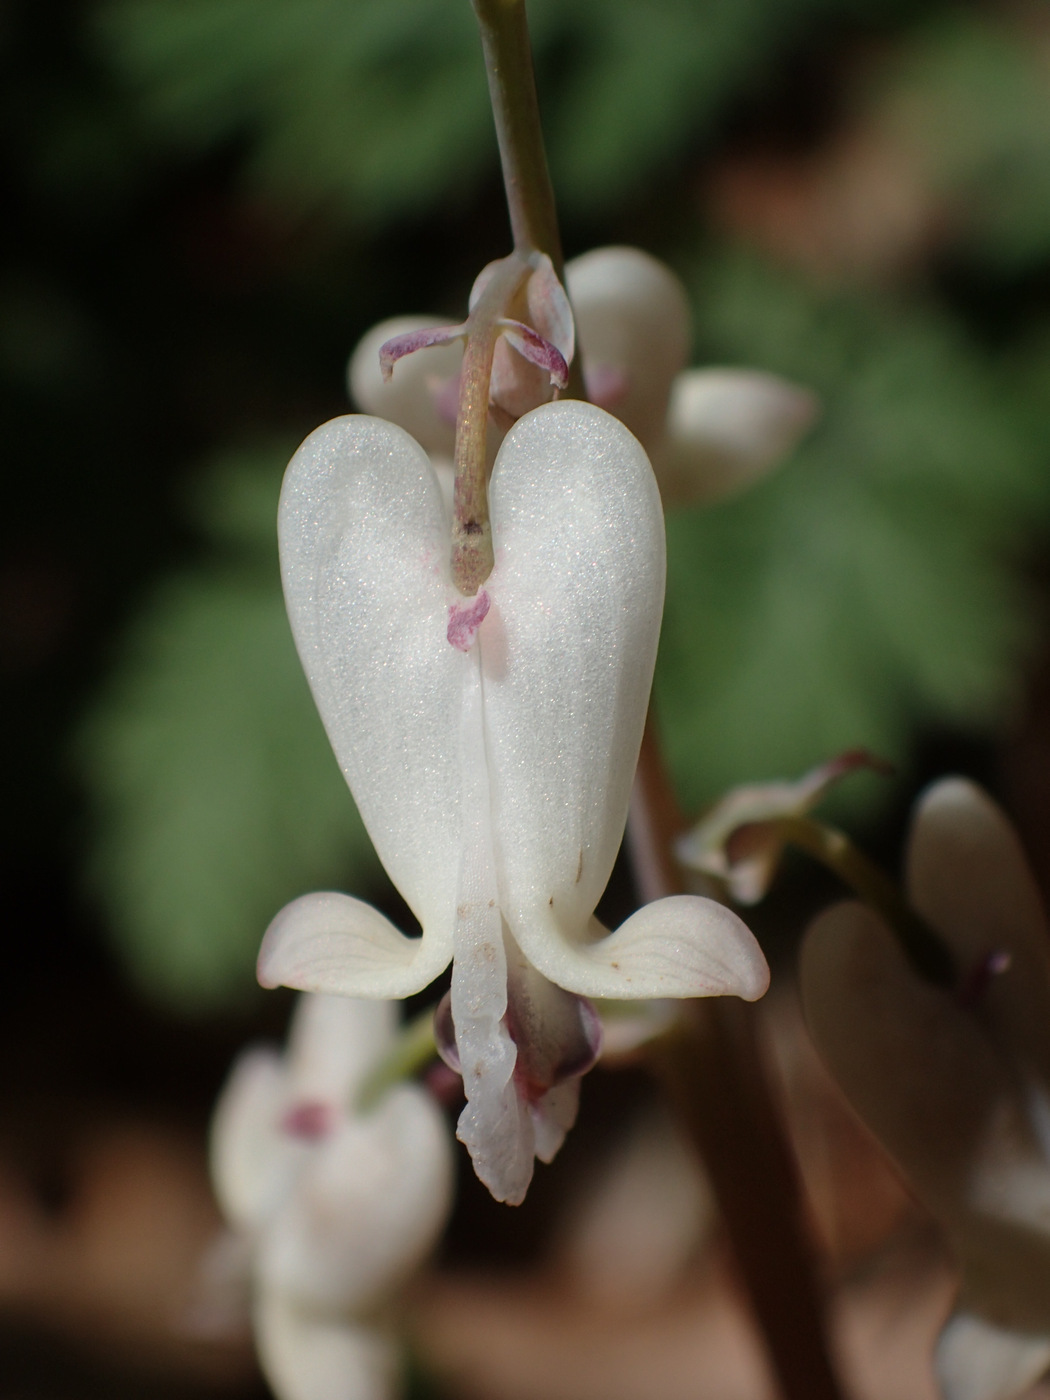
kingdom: Plantae
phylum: Tracheophyta
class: Magnoliopsida
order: Ranunculales
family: Papaveraceae
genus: Dicentra
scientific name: Dicentra canadensis
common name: Squirrel-corn
